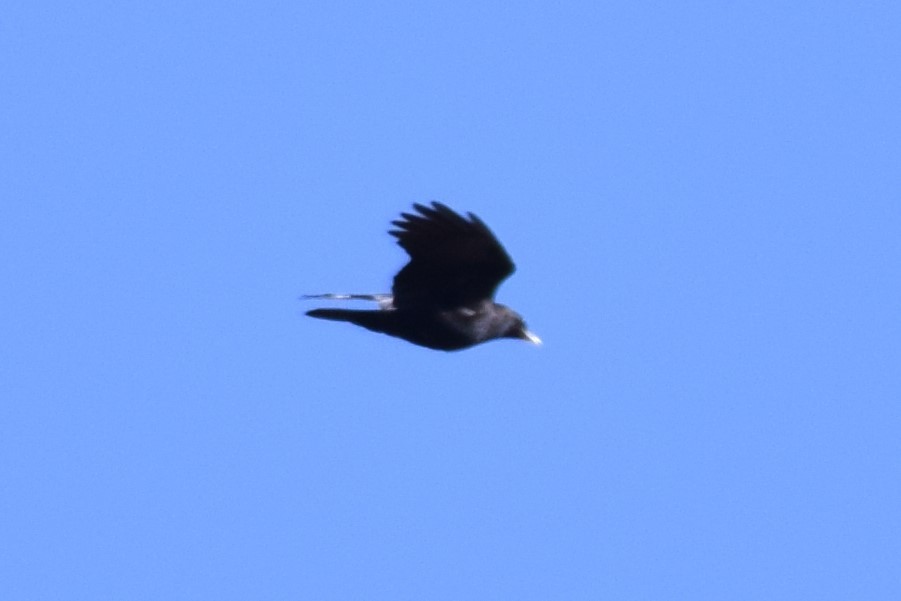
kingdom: Animalia
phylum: Chordata
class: Aves
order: Passeriformes
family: Corvidae
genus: Corvus
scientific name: Corvus brachyrhynchos
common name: American crow
